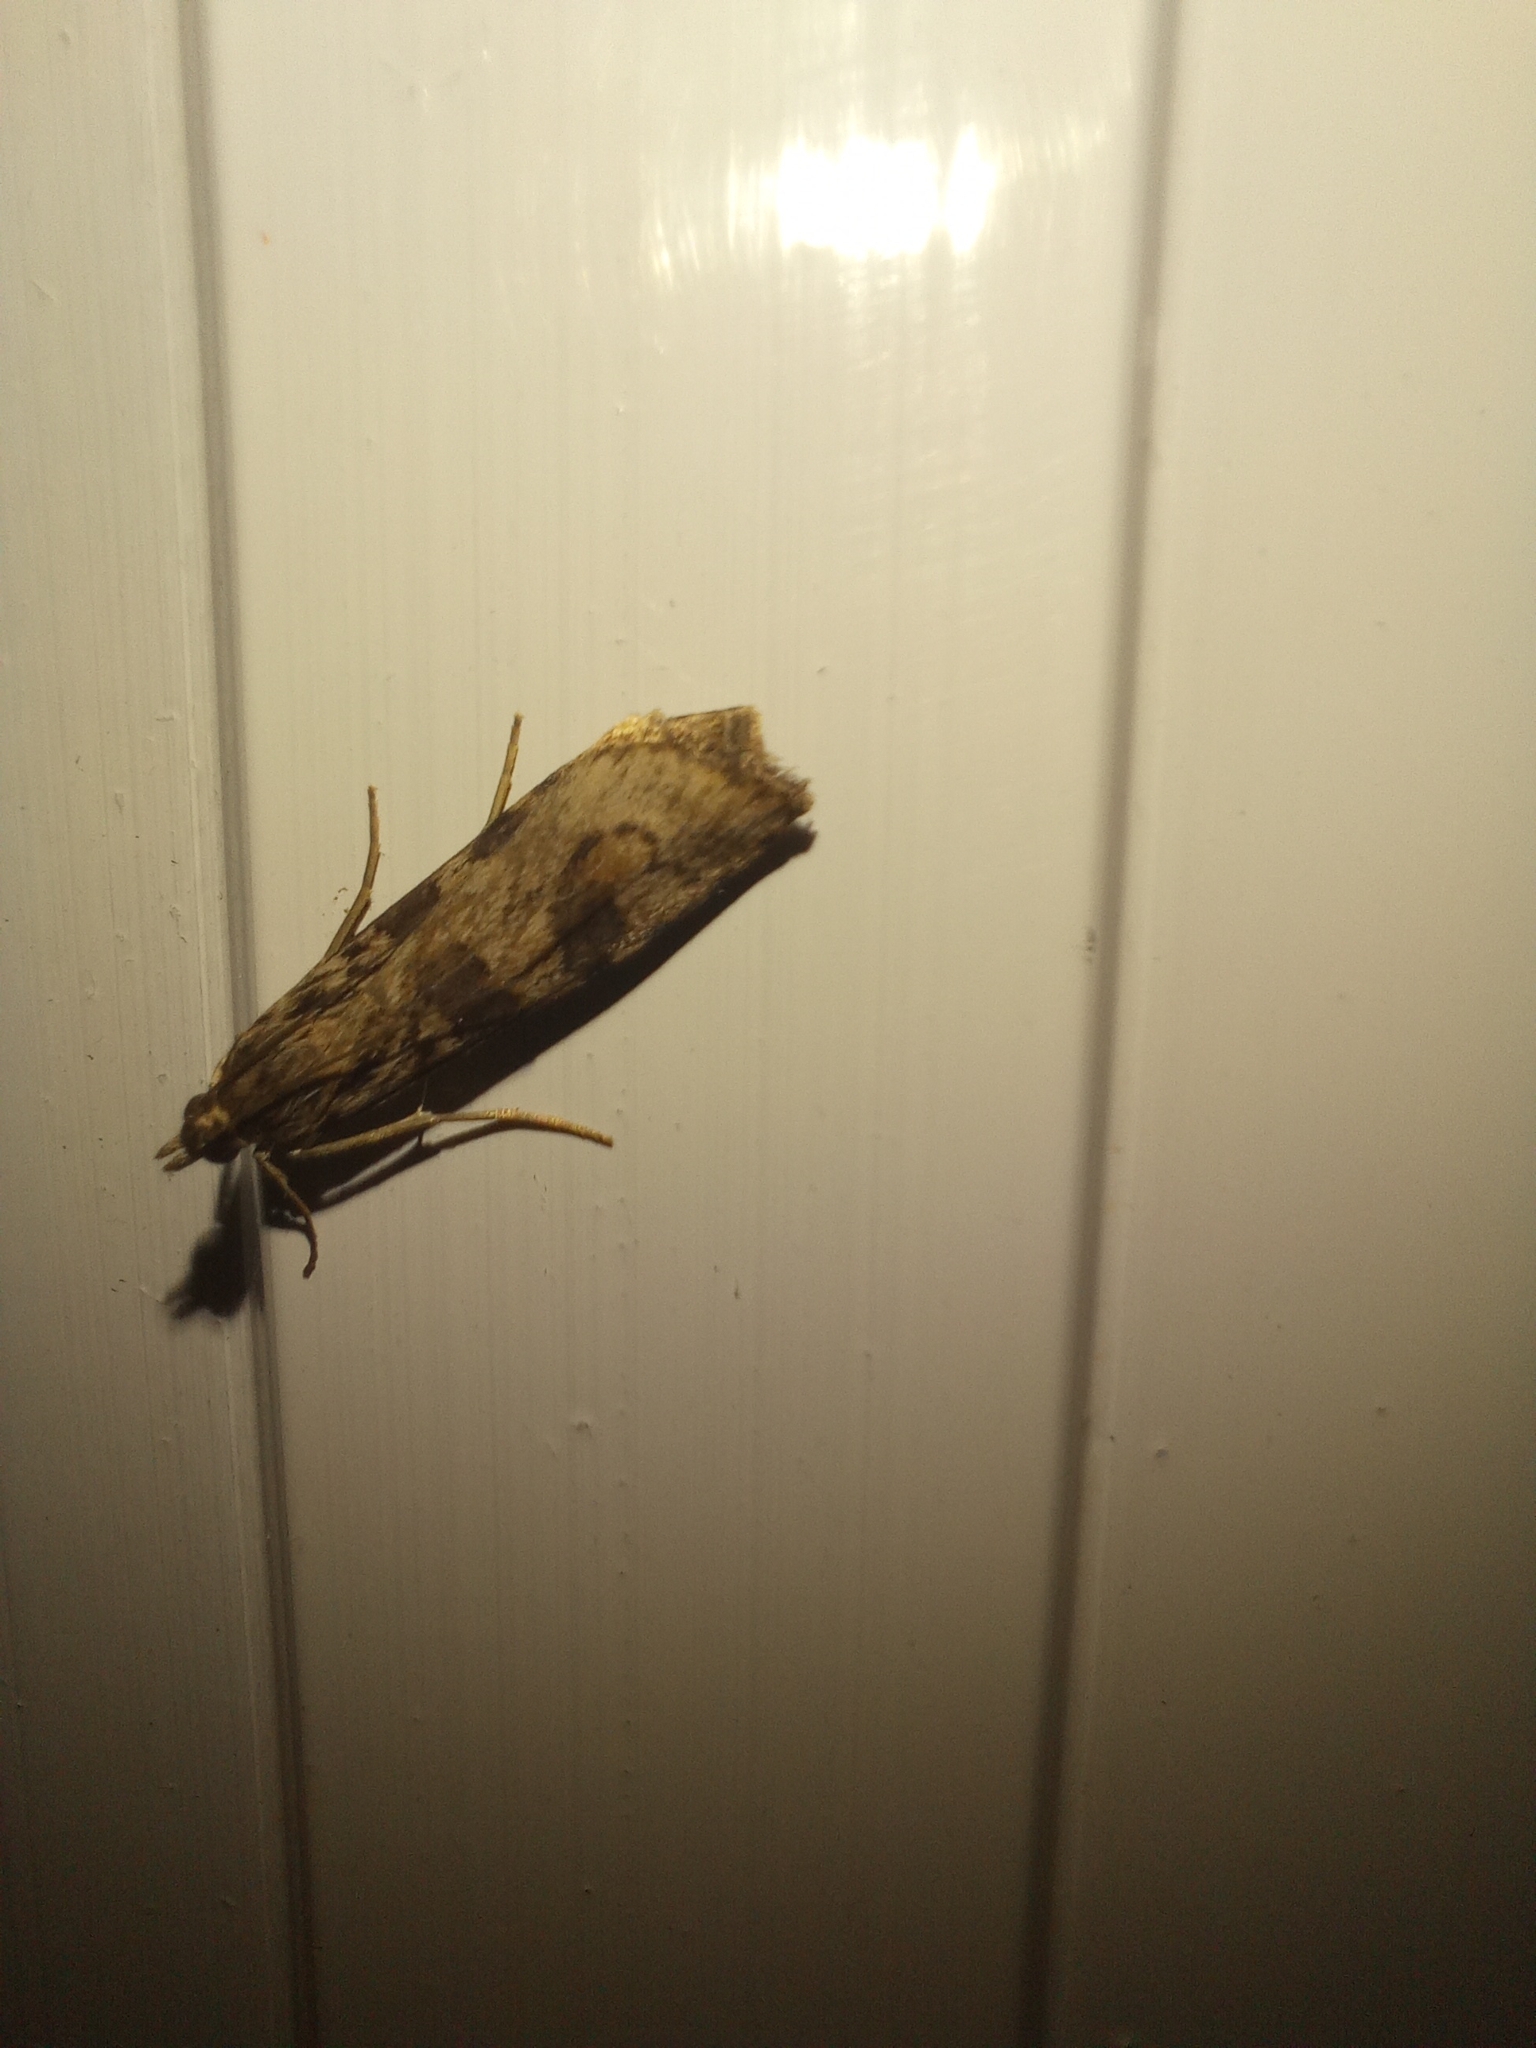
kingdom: Animalia
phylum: Arthropoda
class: Insecta
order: Lepidoptera
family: Crambidae
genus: Nomophila
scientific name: Nomophila
